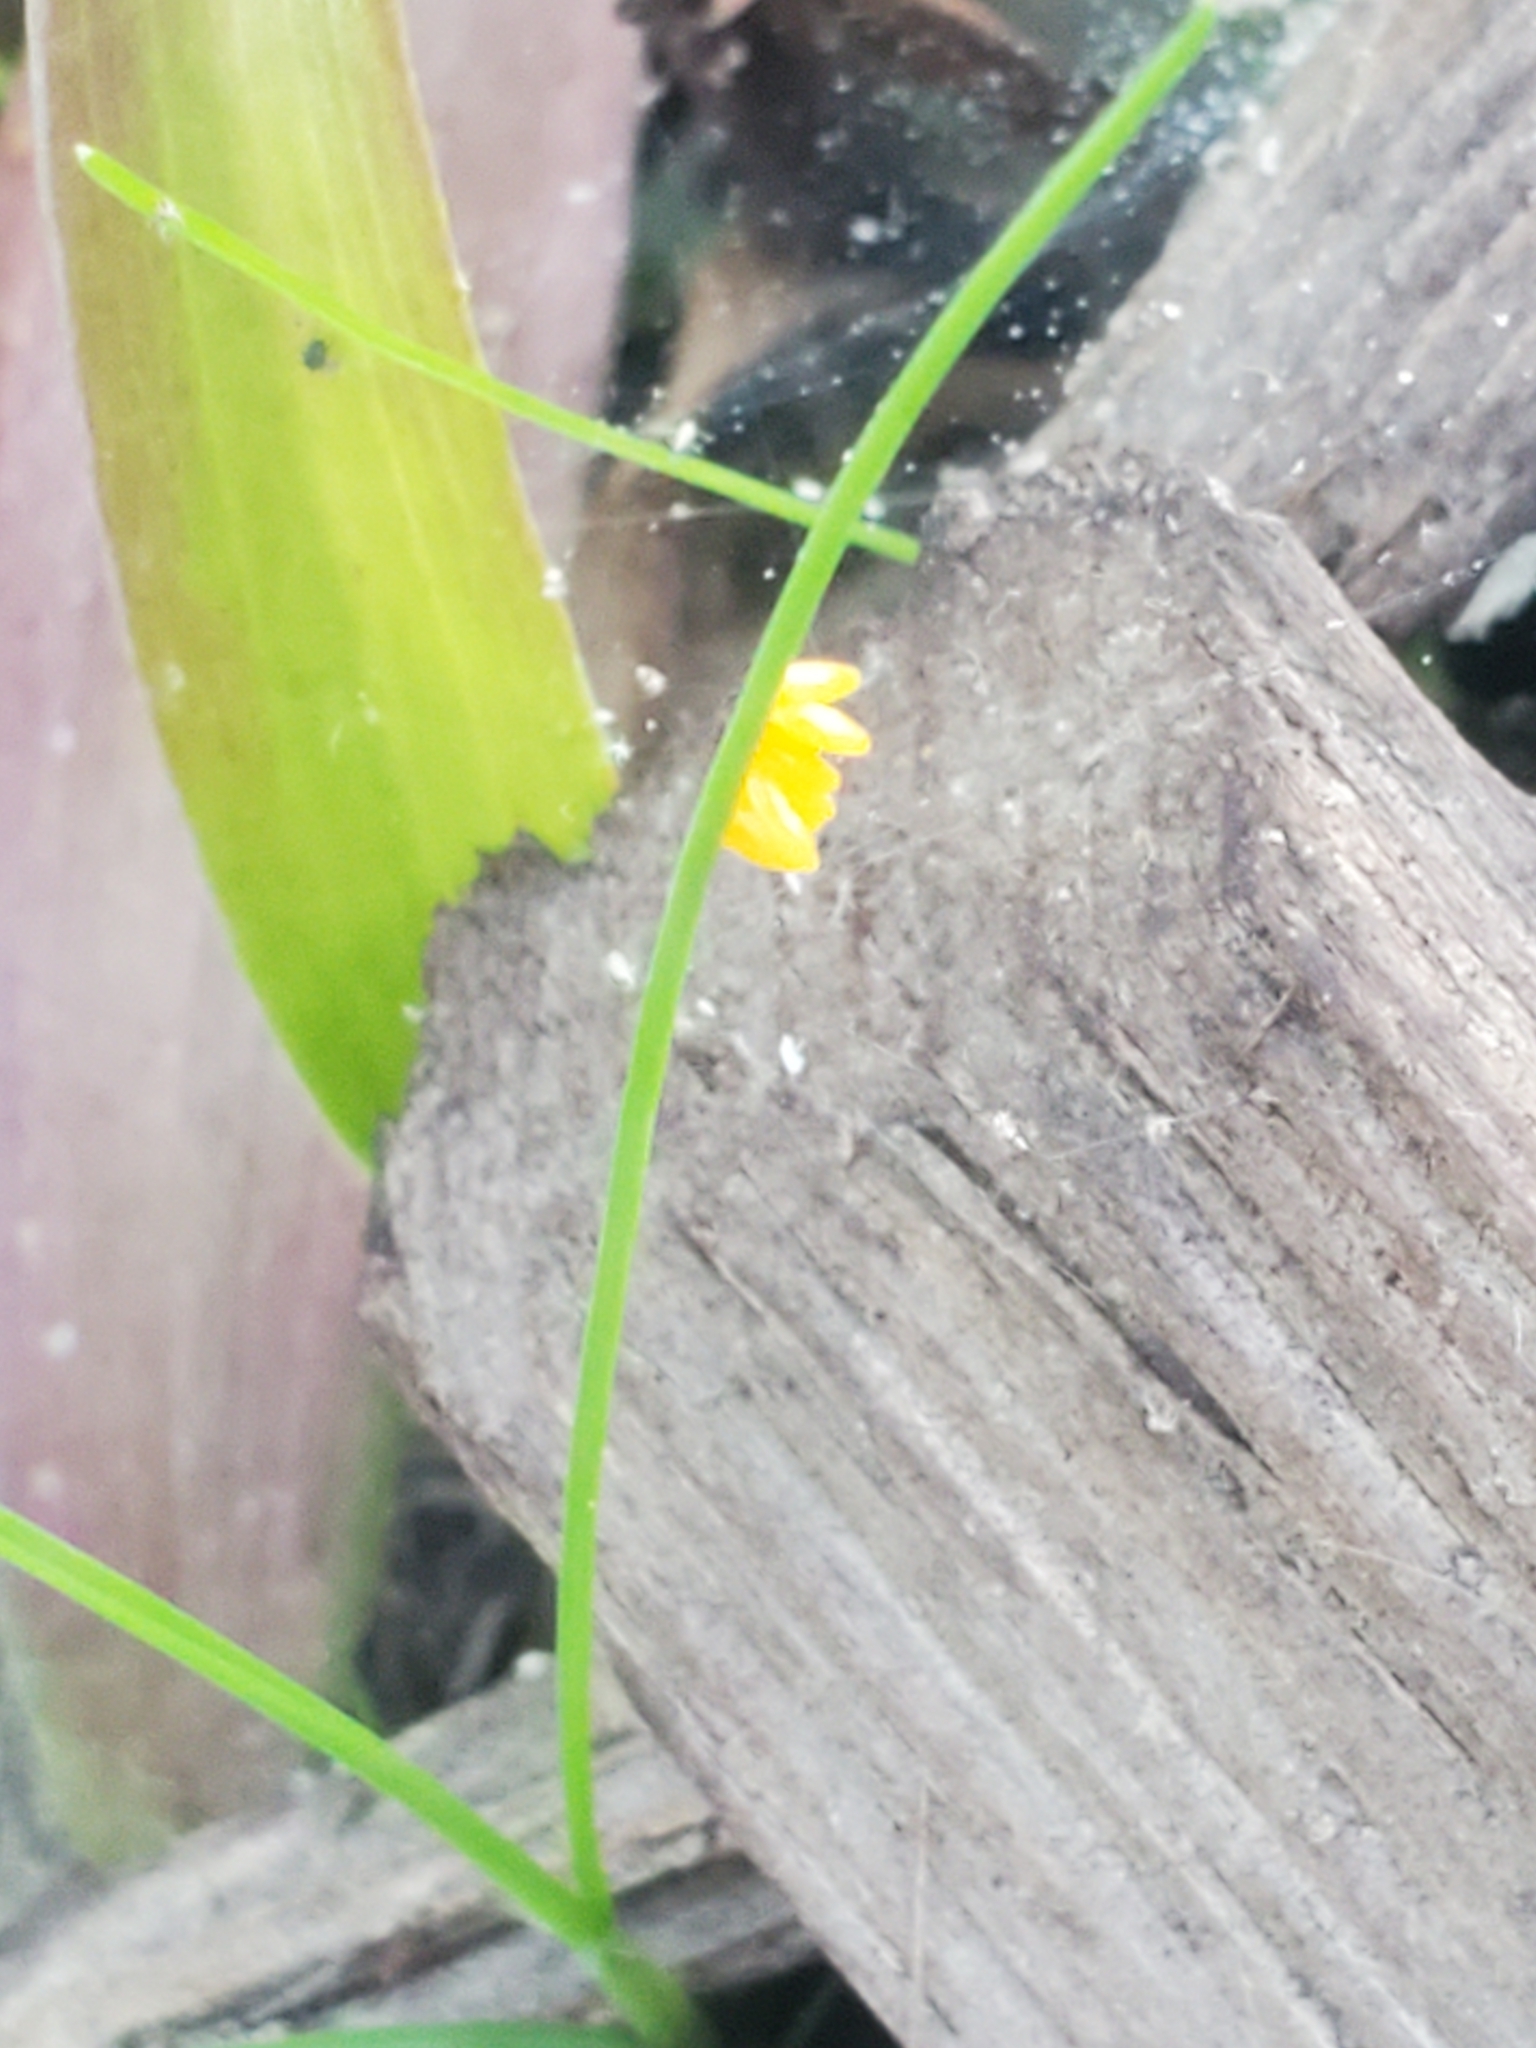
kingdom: Animalia
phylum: Arthropoda
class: Insecta
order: Coleoptera
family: Coccinellidae
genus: Hippodamia
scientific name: Hippodamia convergens
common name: Convergent lady beetle
